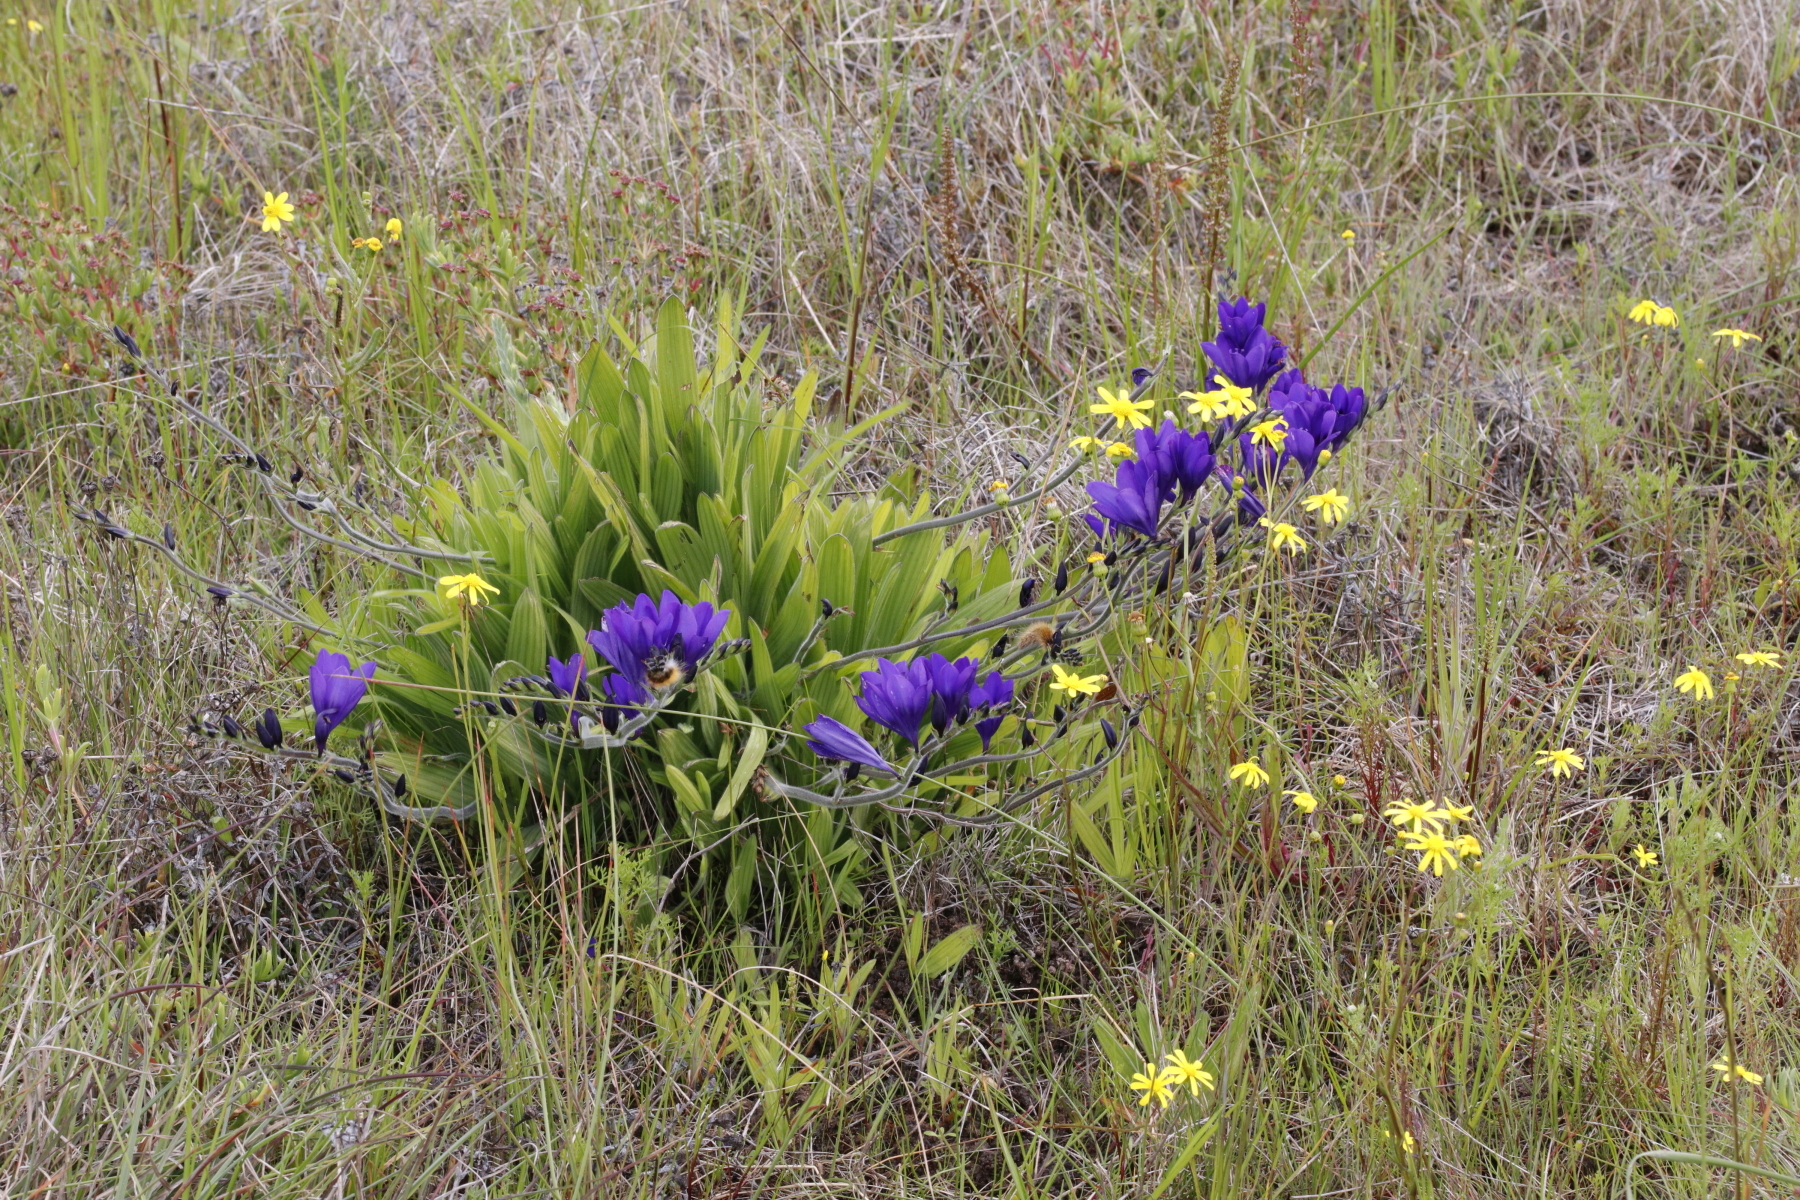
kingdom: Plantae
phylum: Tracheophyta
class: Liliopsida
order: Asparagales
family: Iridaceae
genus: Babiana
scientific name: Babiana angustifolia
